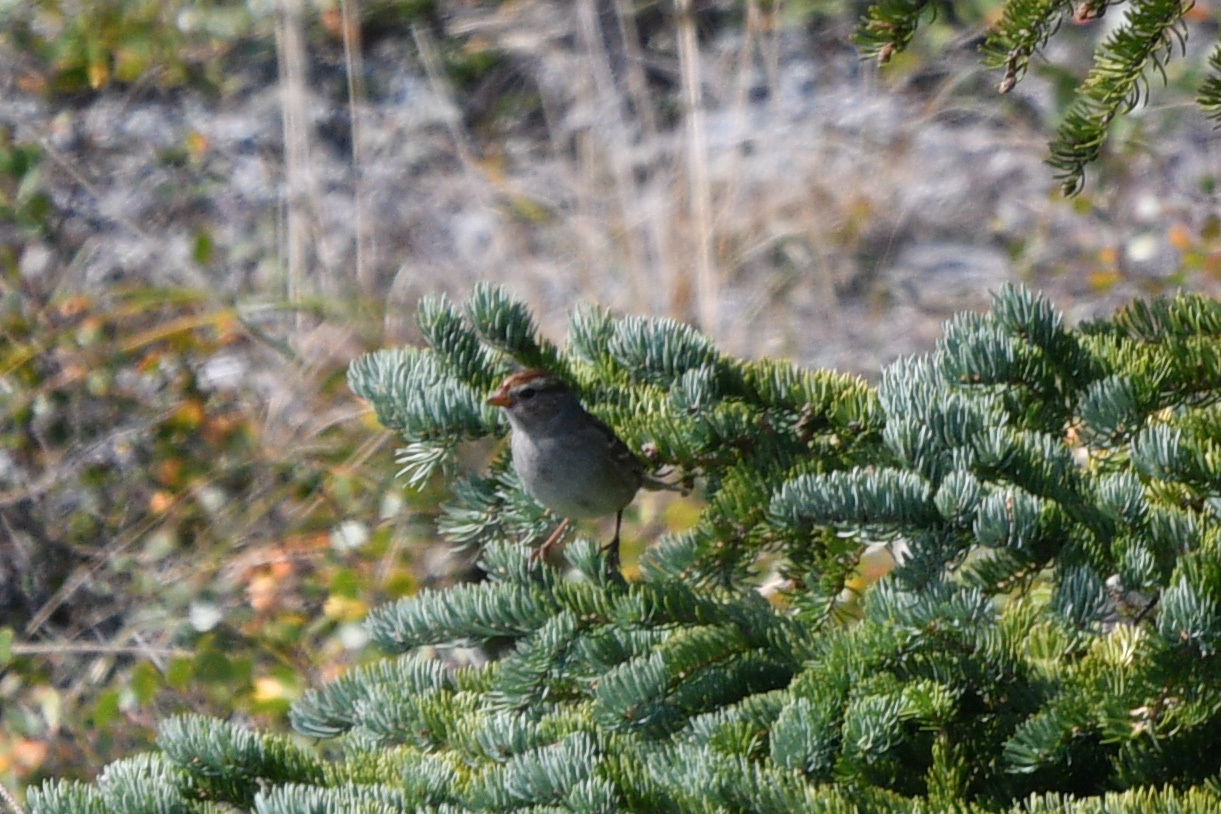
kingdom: Animalia
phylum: Chordata
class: Aves
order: Passeriformes
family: Passerellidae
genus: Zonotrichia
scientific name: Zonotrichia leucophrys
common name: White-crowned sparrow
